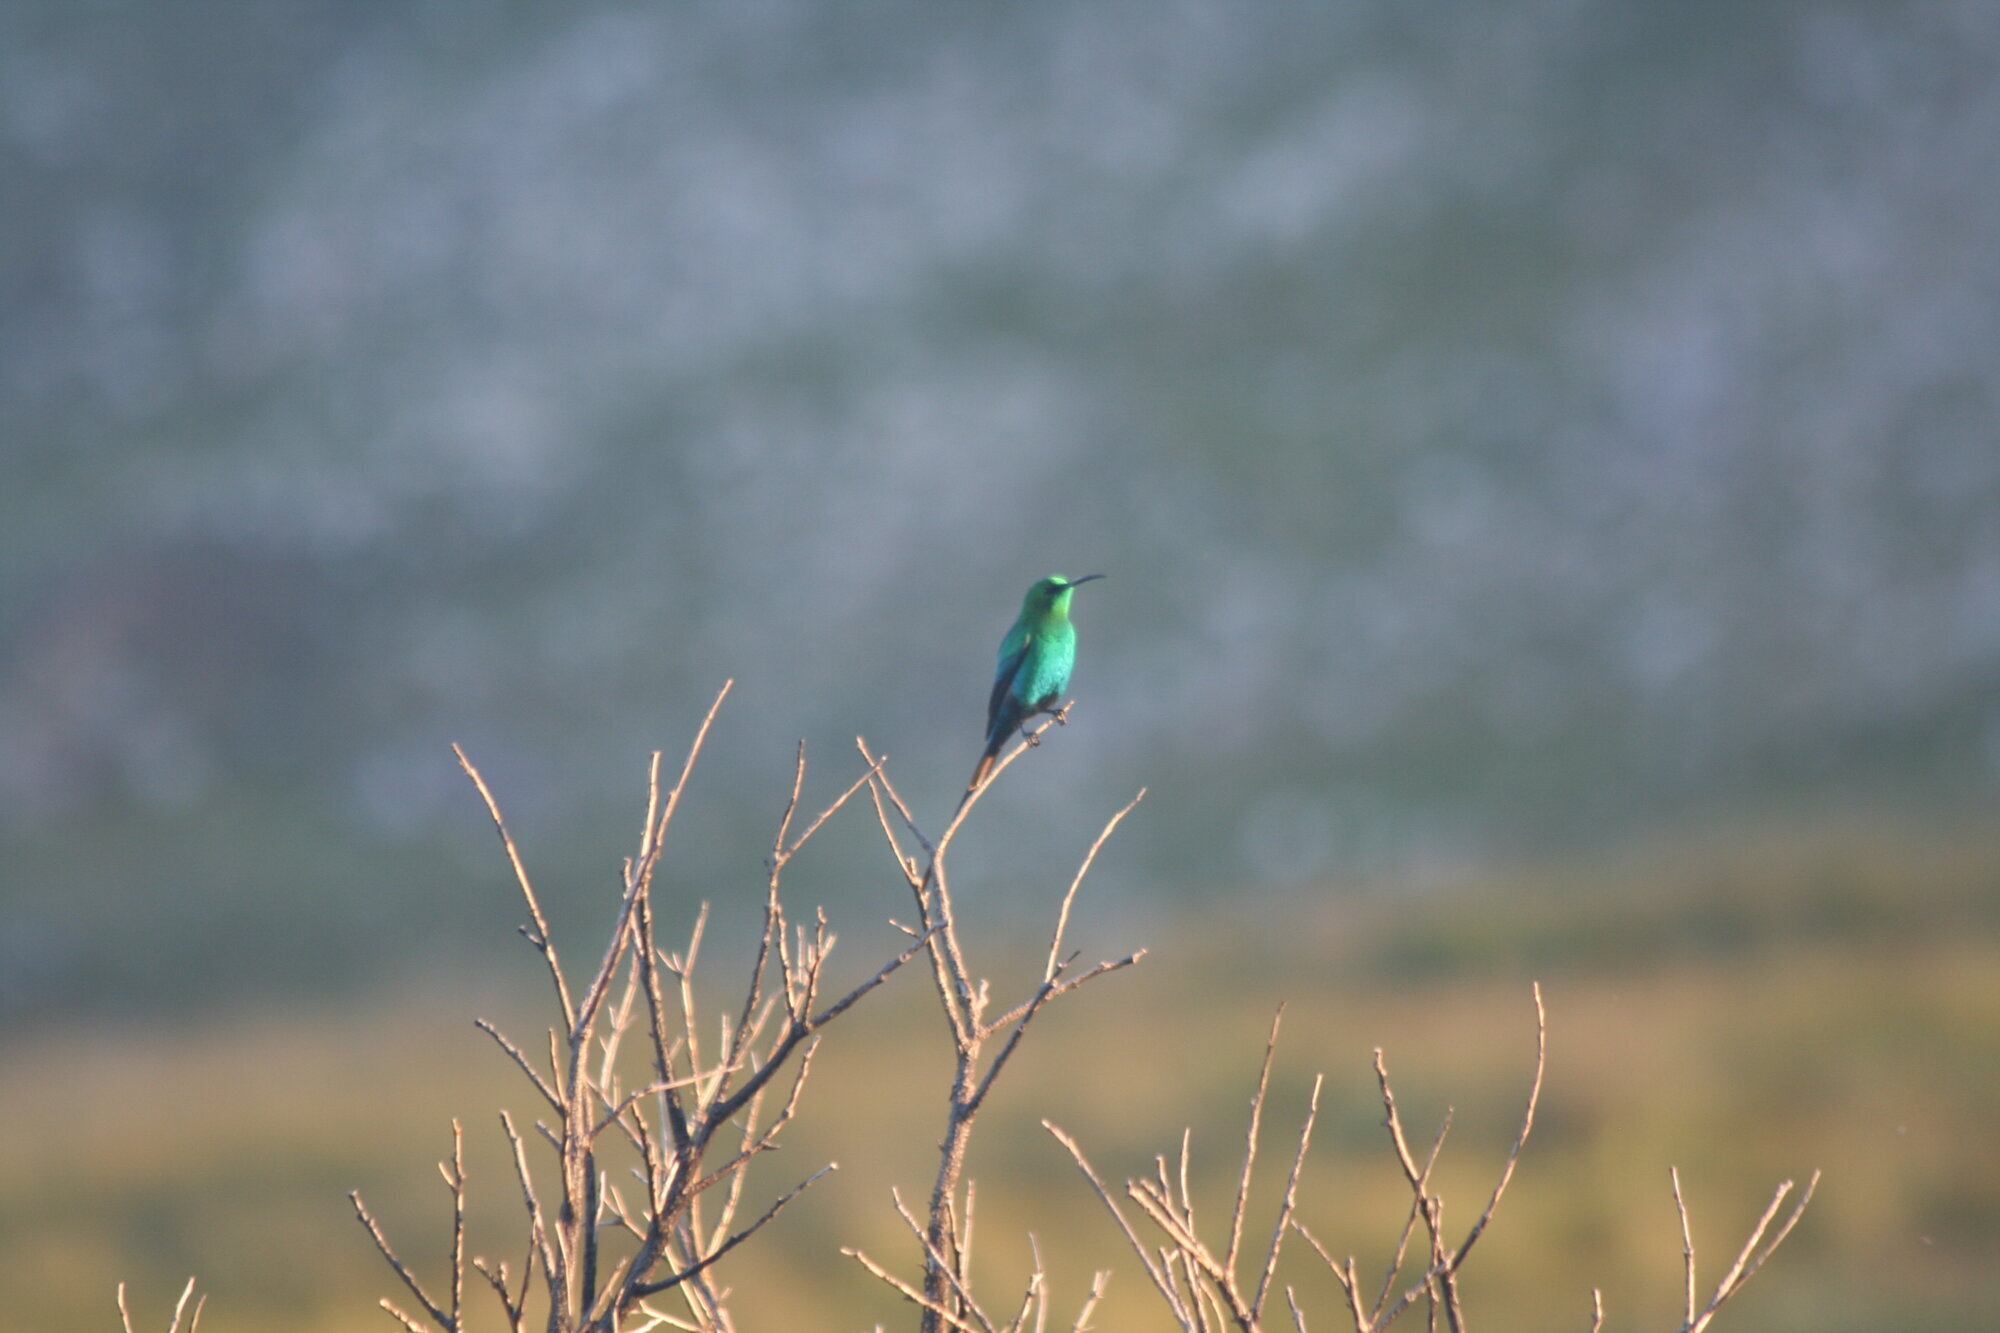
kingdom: Animalia
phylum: Chordata
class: Aves
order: Passeriformes
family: Nectariniidae
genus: Nectarinia
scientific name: Nectarinia famosa
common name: Malachite sunbird
